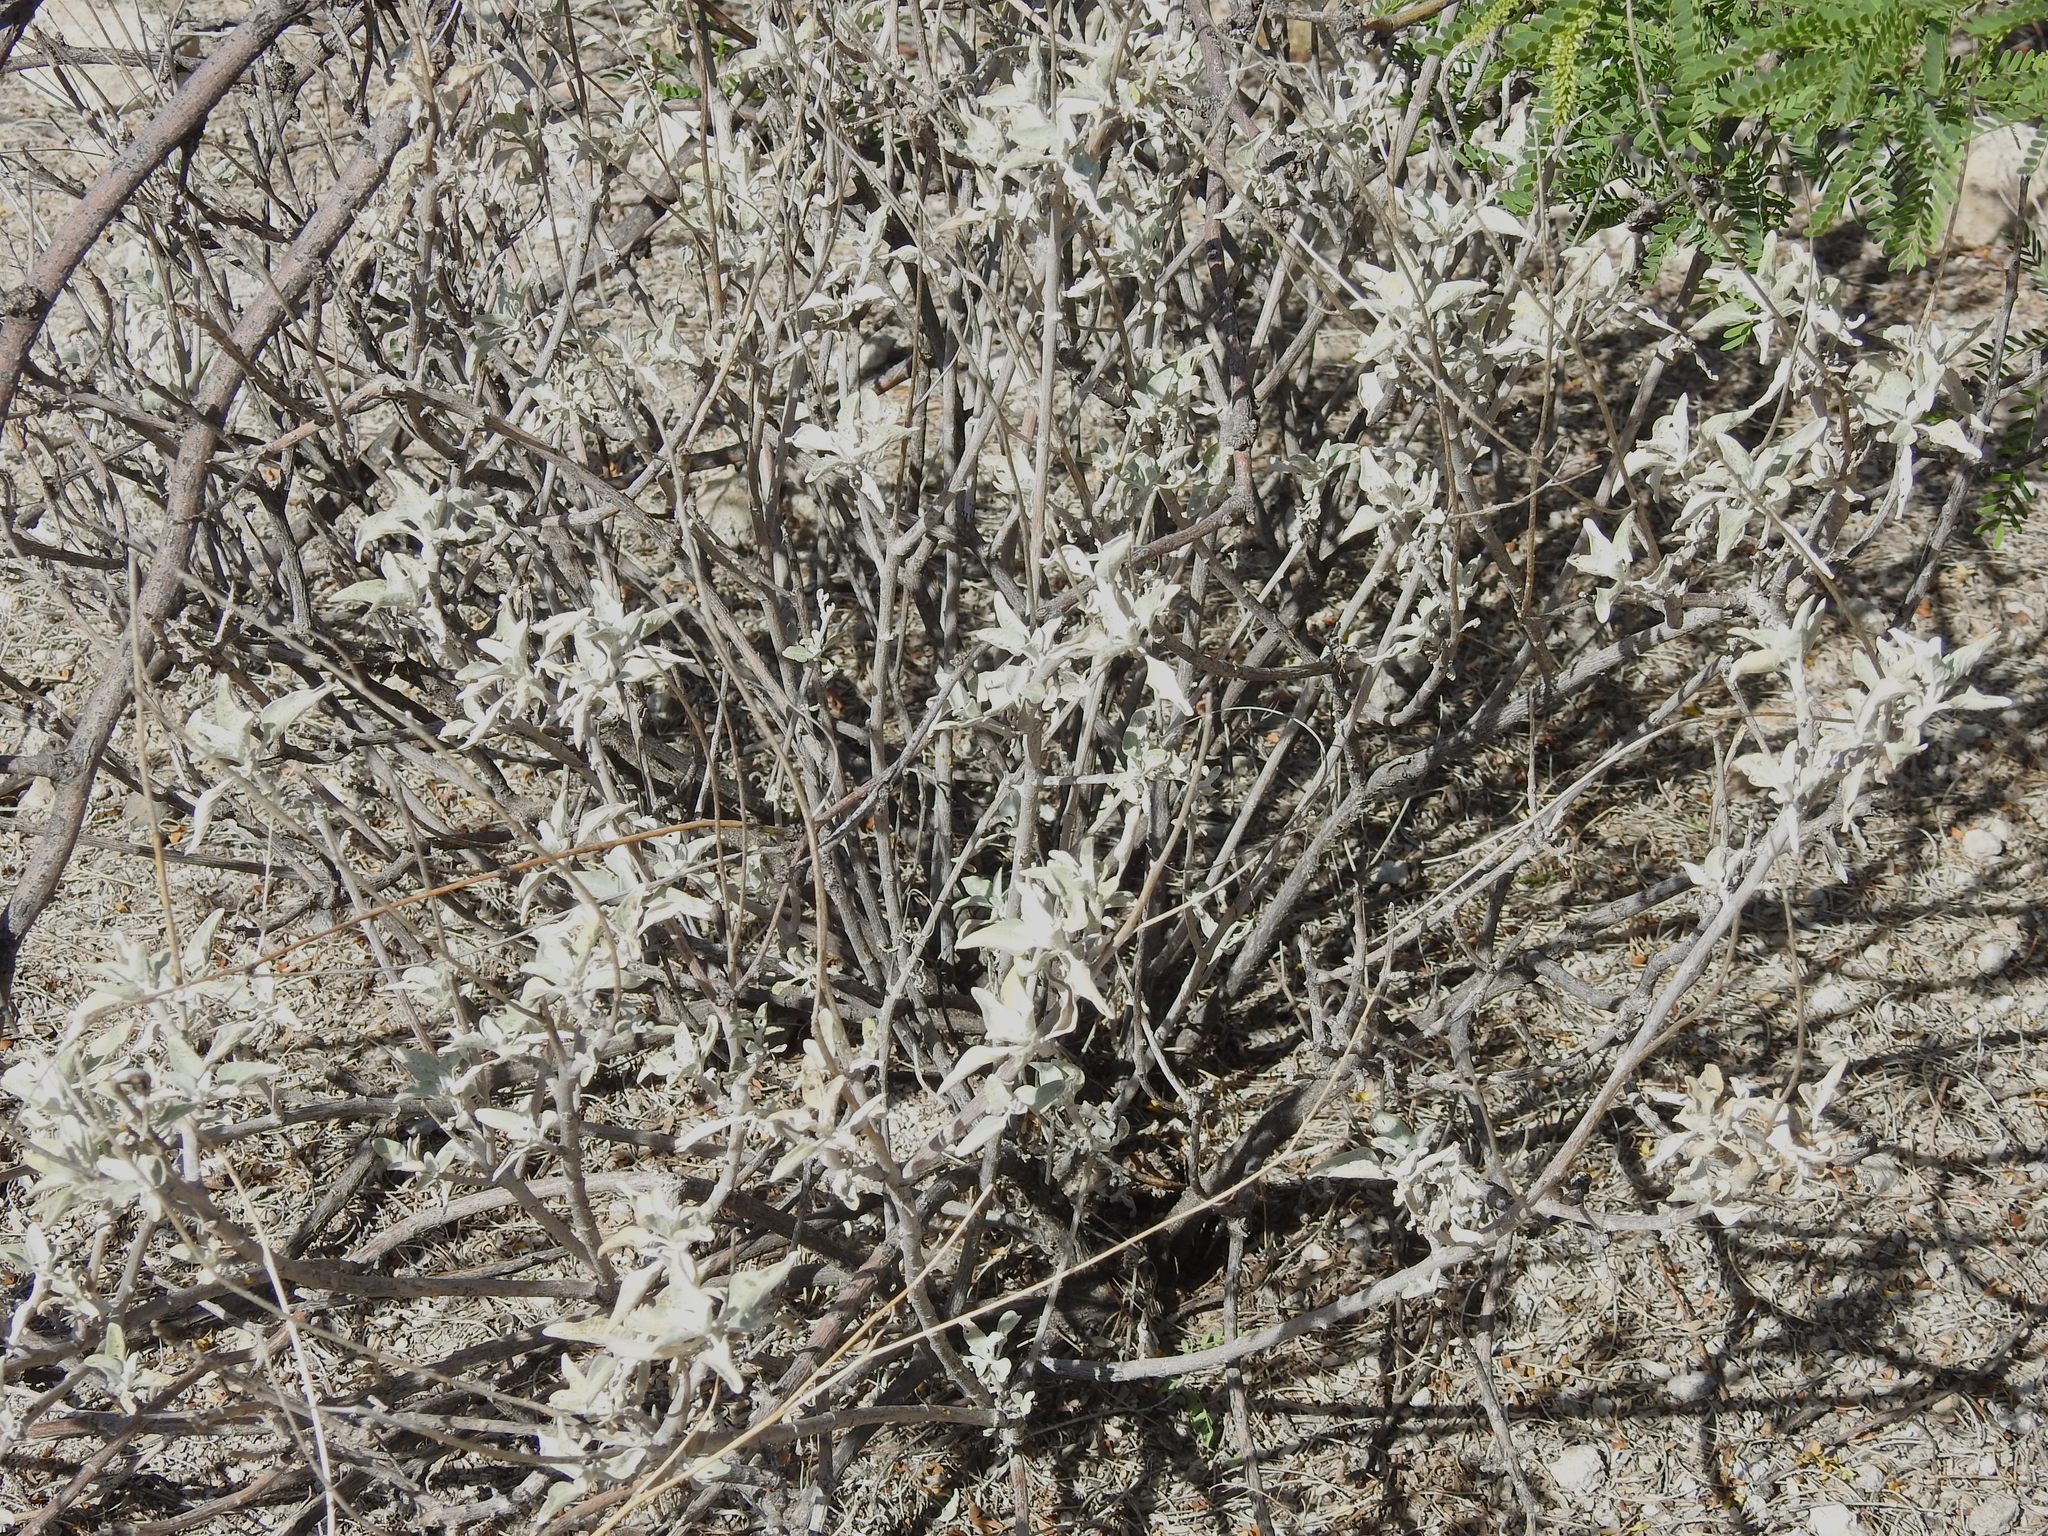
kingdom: Plantae
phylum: Tracheophyta
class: Magnoliopsida
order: Asterales
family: Asteraceae
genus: Encelia
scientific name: Encelia farinosa
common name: Brittlebush
